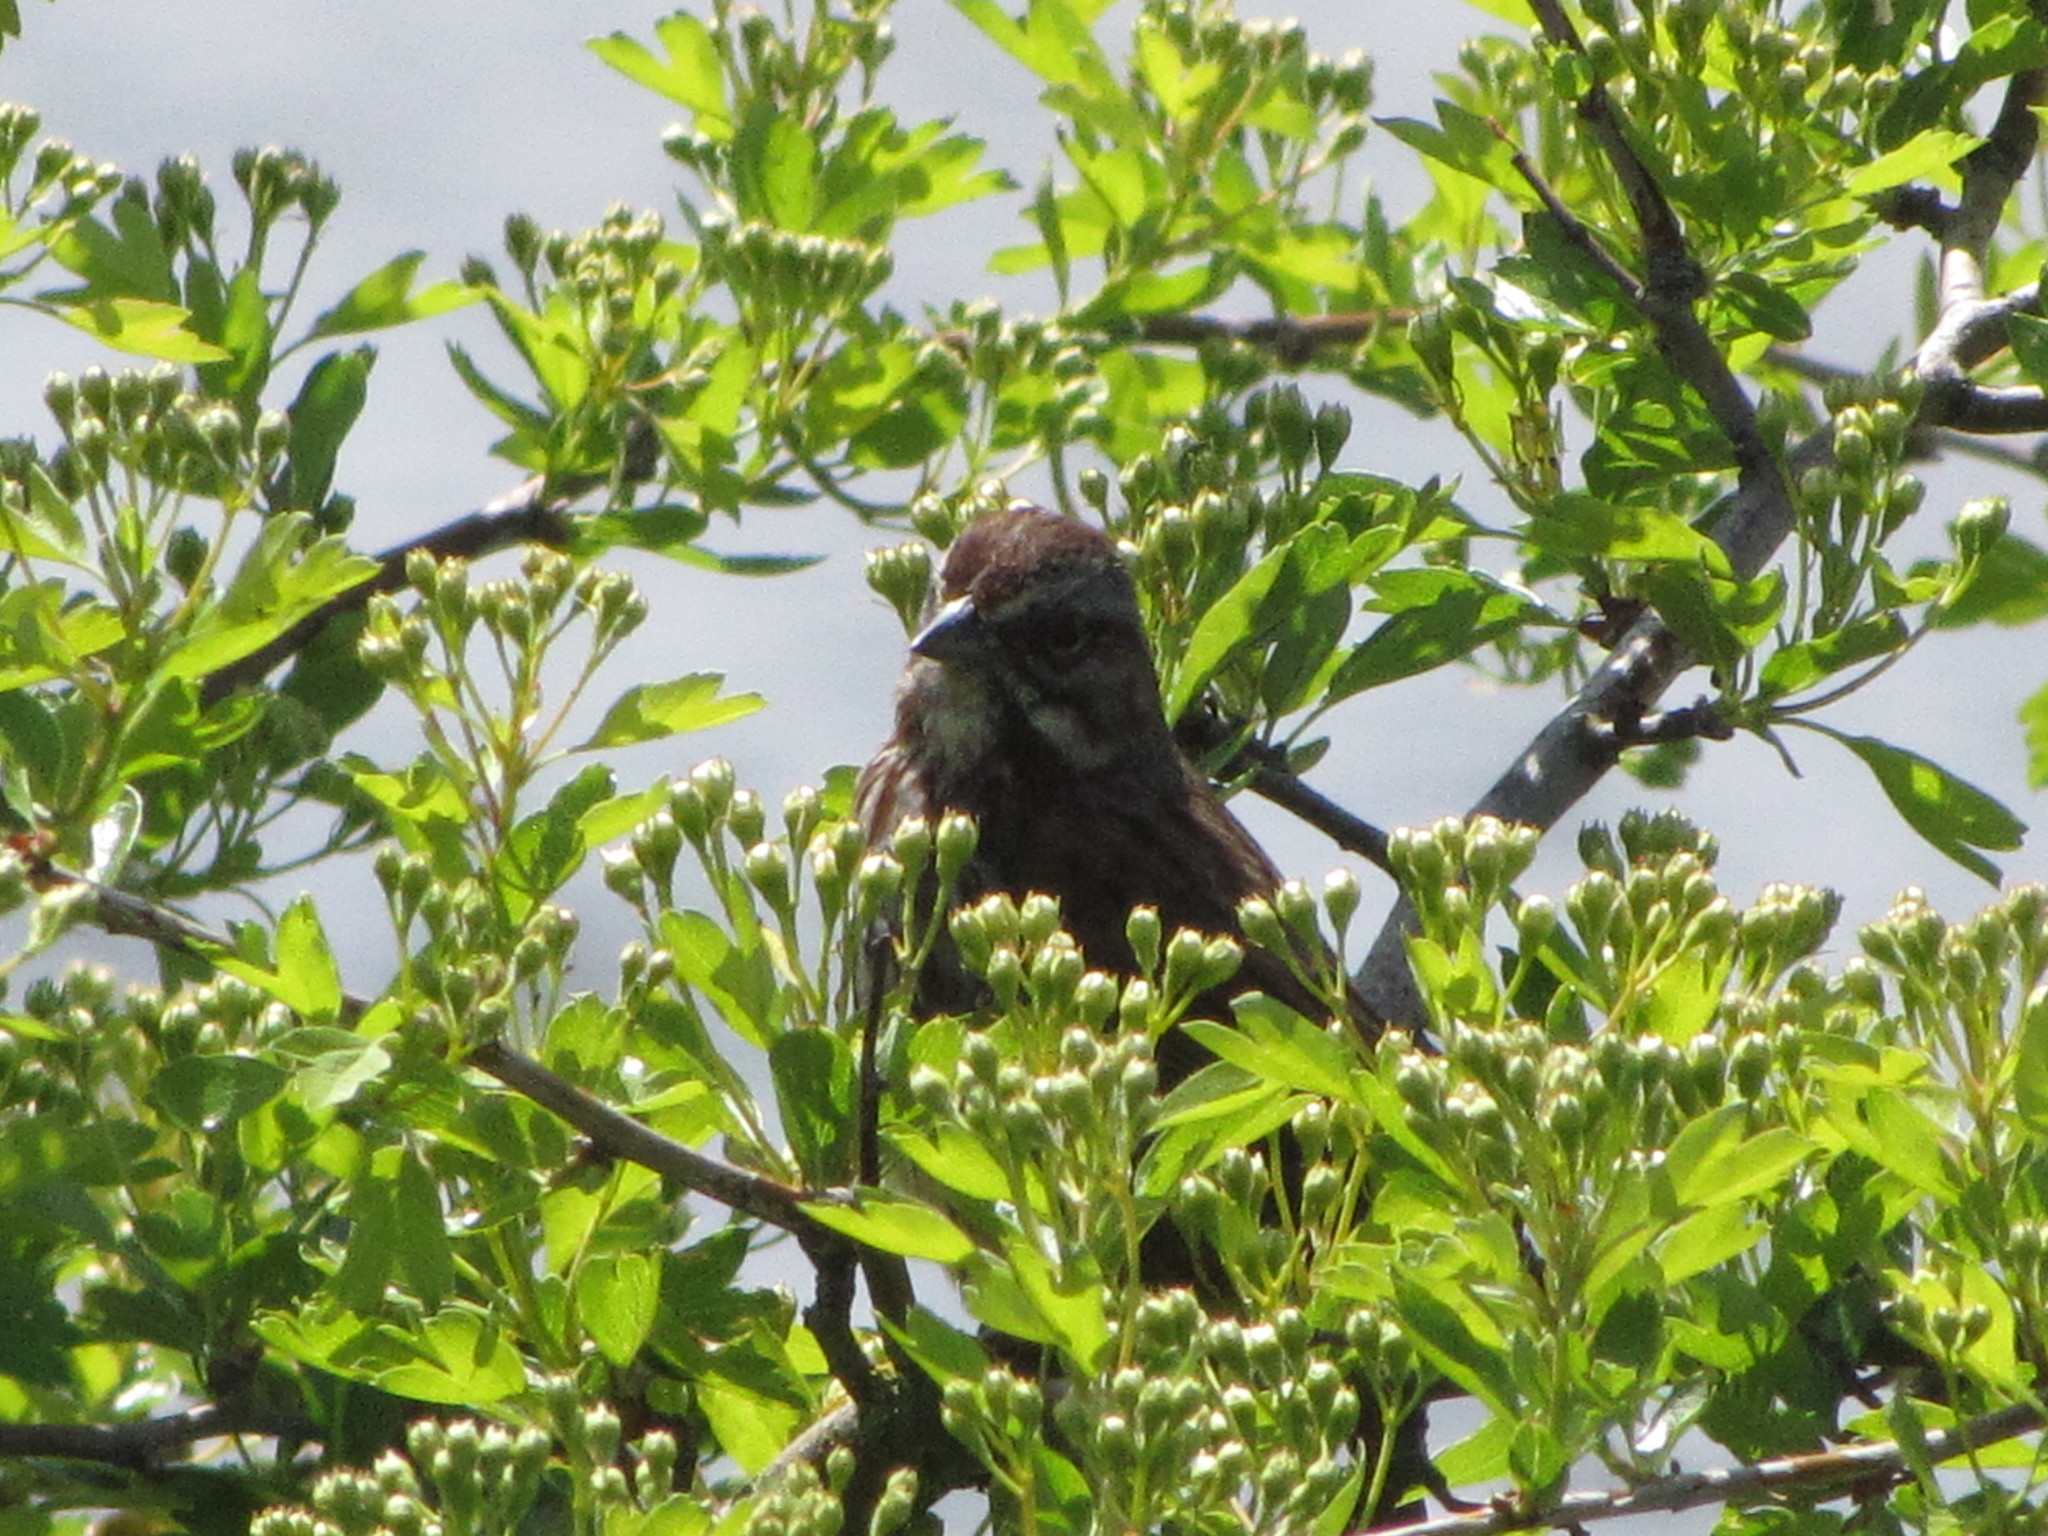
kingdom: Animalia
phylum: Chordata
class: Aves
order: Passeriformes
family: Passerellidae
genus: Melospiza
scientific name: Melospiza melodia
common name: Song sparrow
